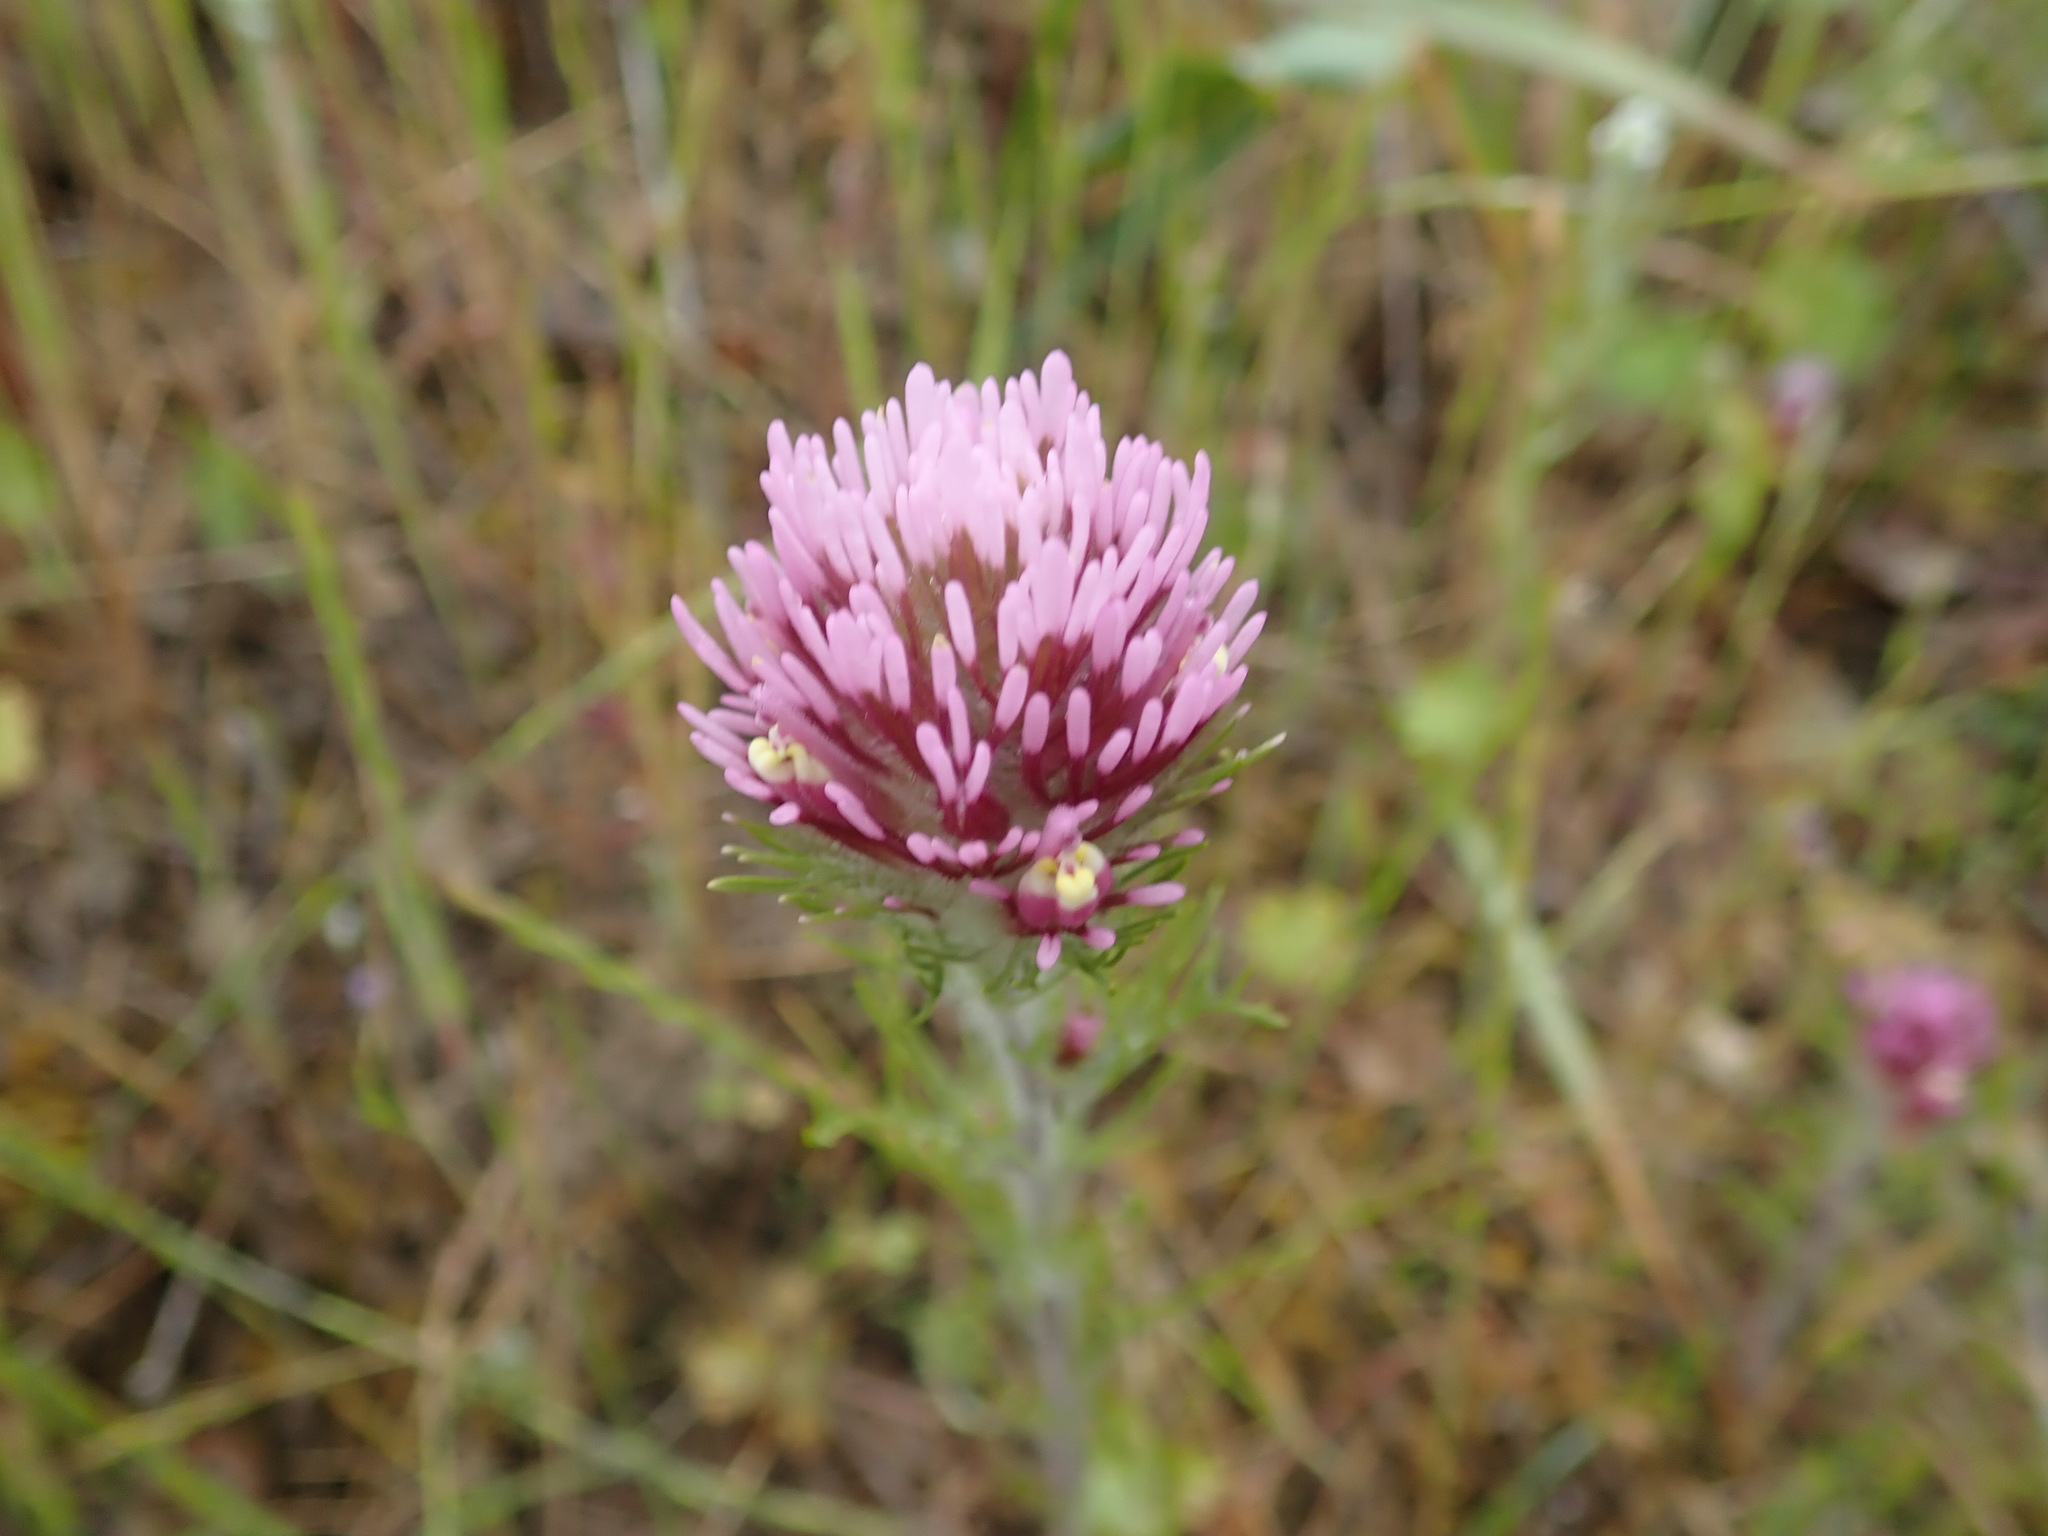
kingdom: Plantae
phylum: Tracheophyta
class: Magnoliopsida
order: Lamiales
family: Orobanchaceae
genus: Castilleja
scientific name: Castilleja exserta
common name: Purple owl-clover
